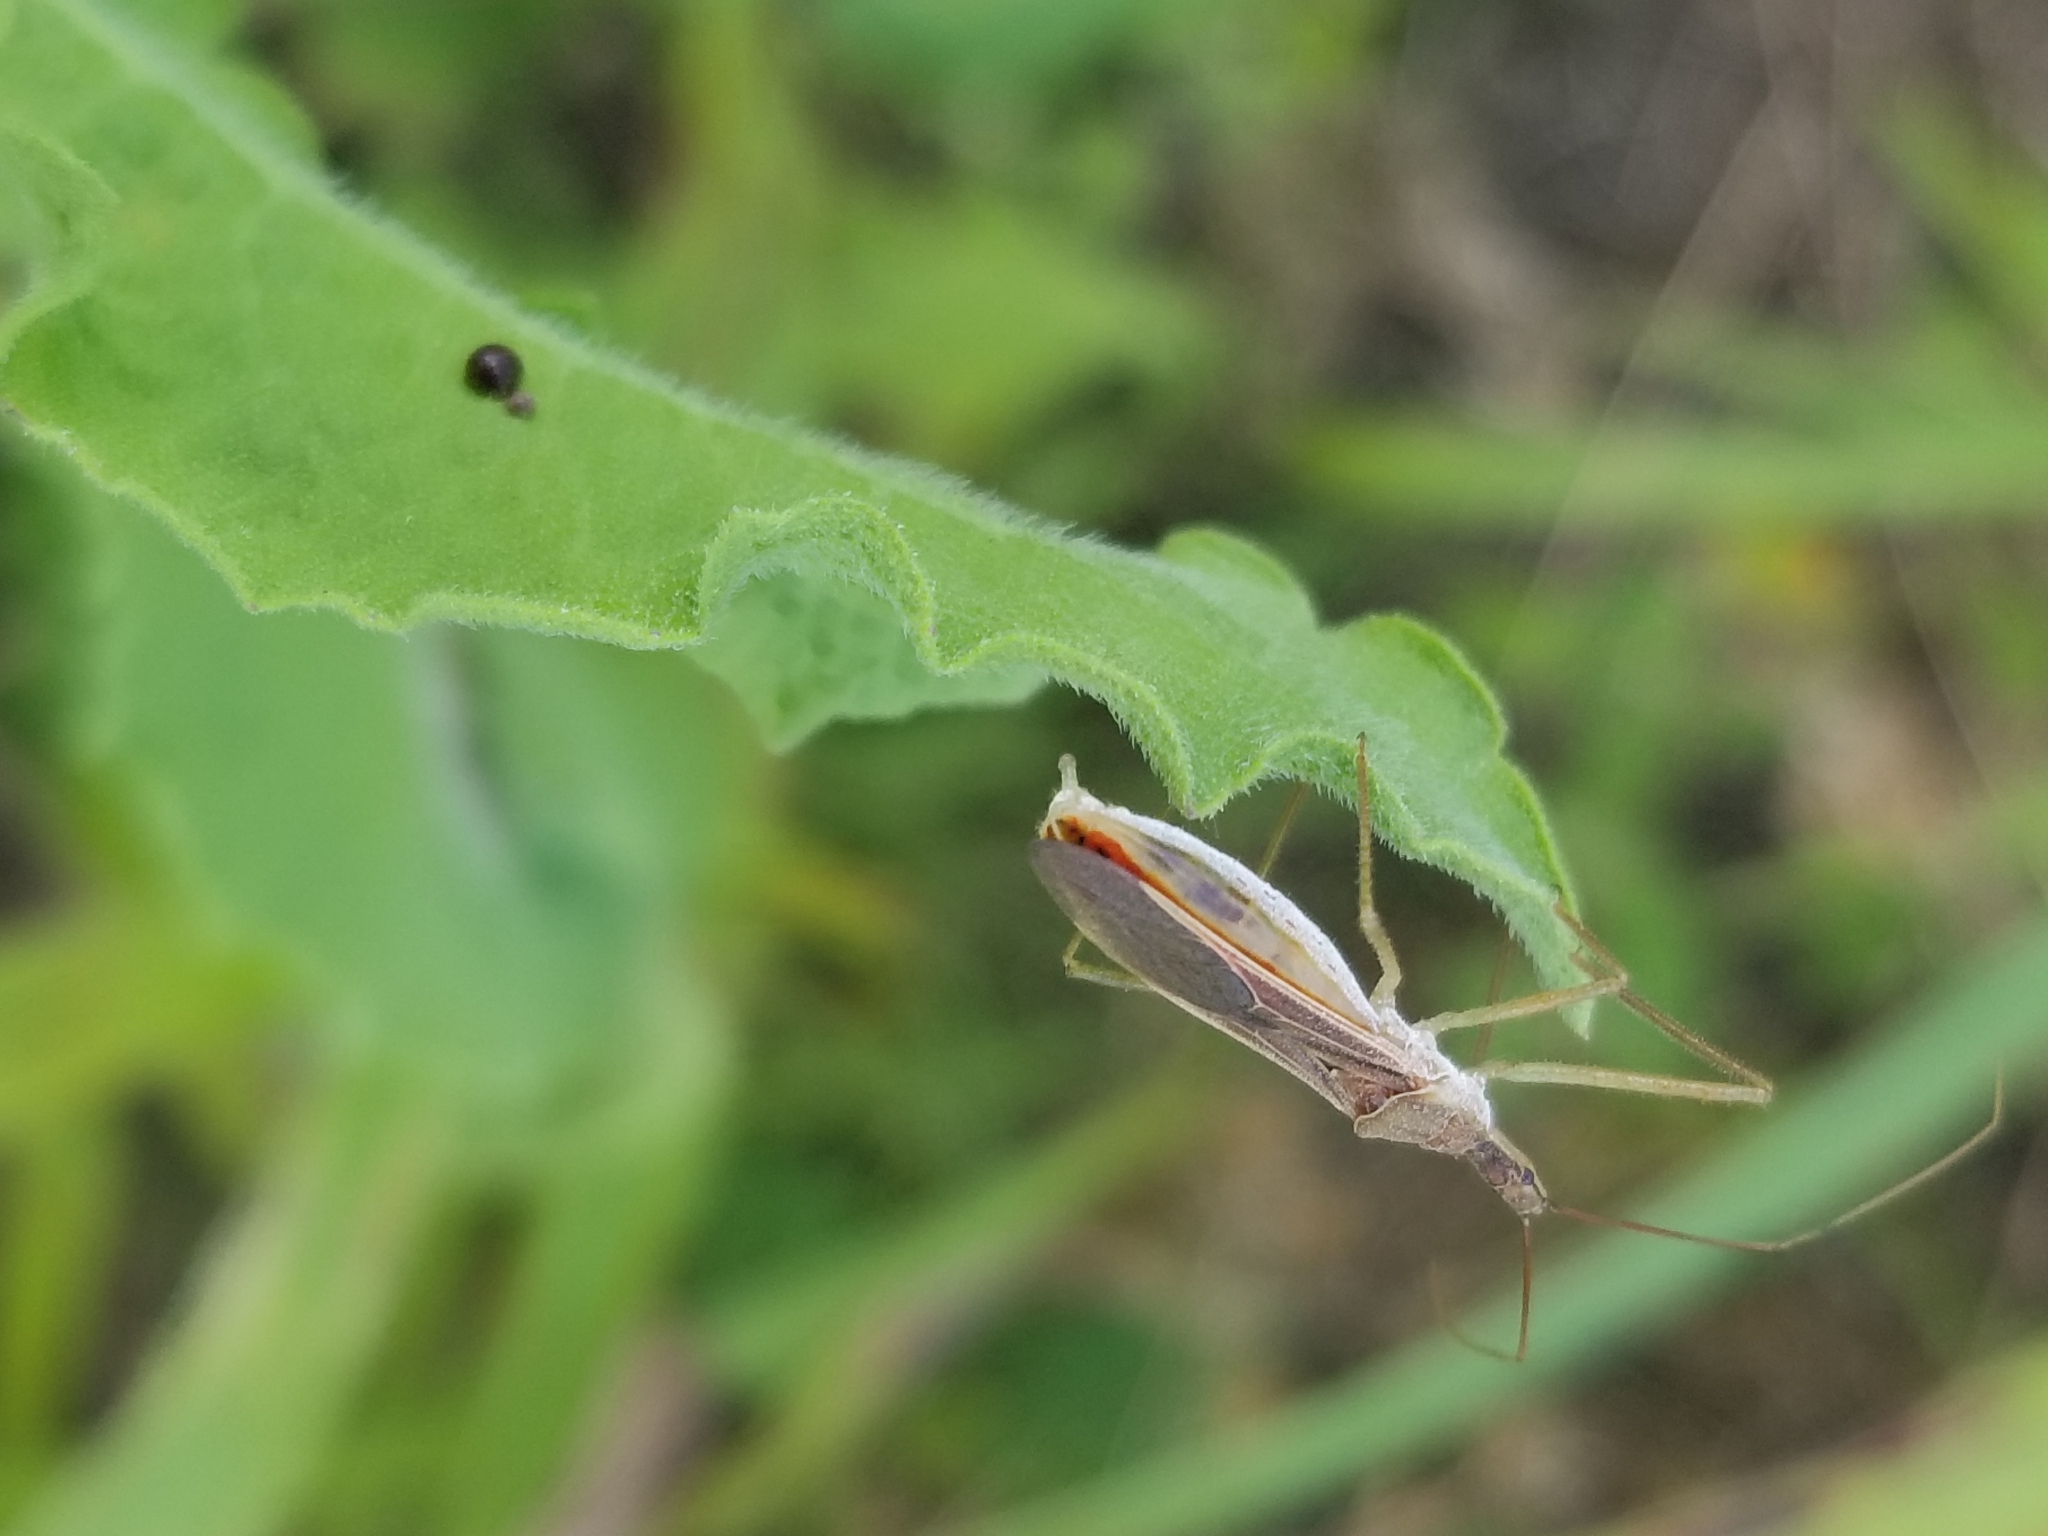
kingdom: Animalia
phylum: Arthropoda
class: Insecta
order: Hemiptera
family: Reduviidae
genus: Zelus
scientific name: Zelus cervicalis
